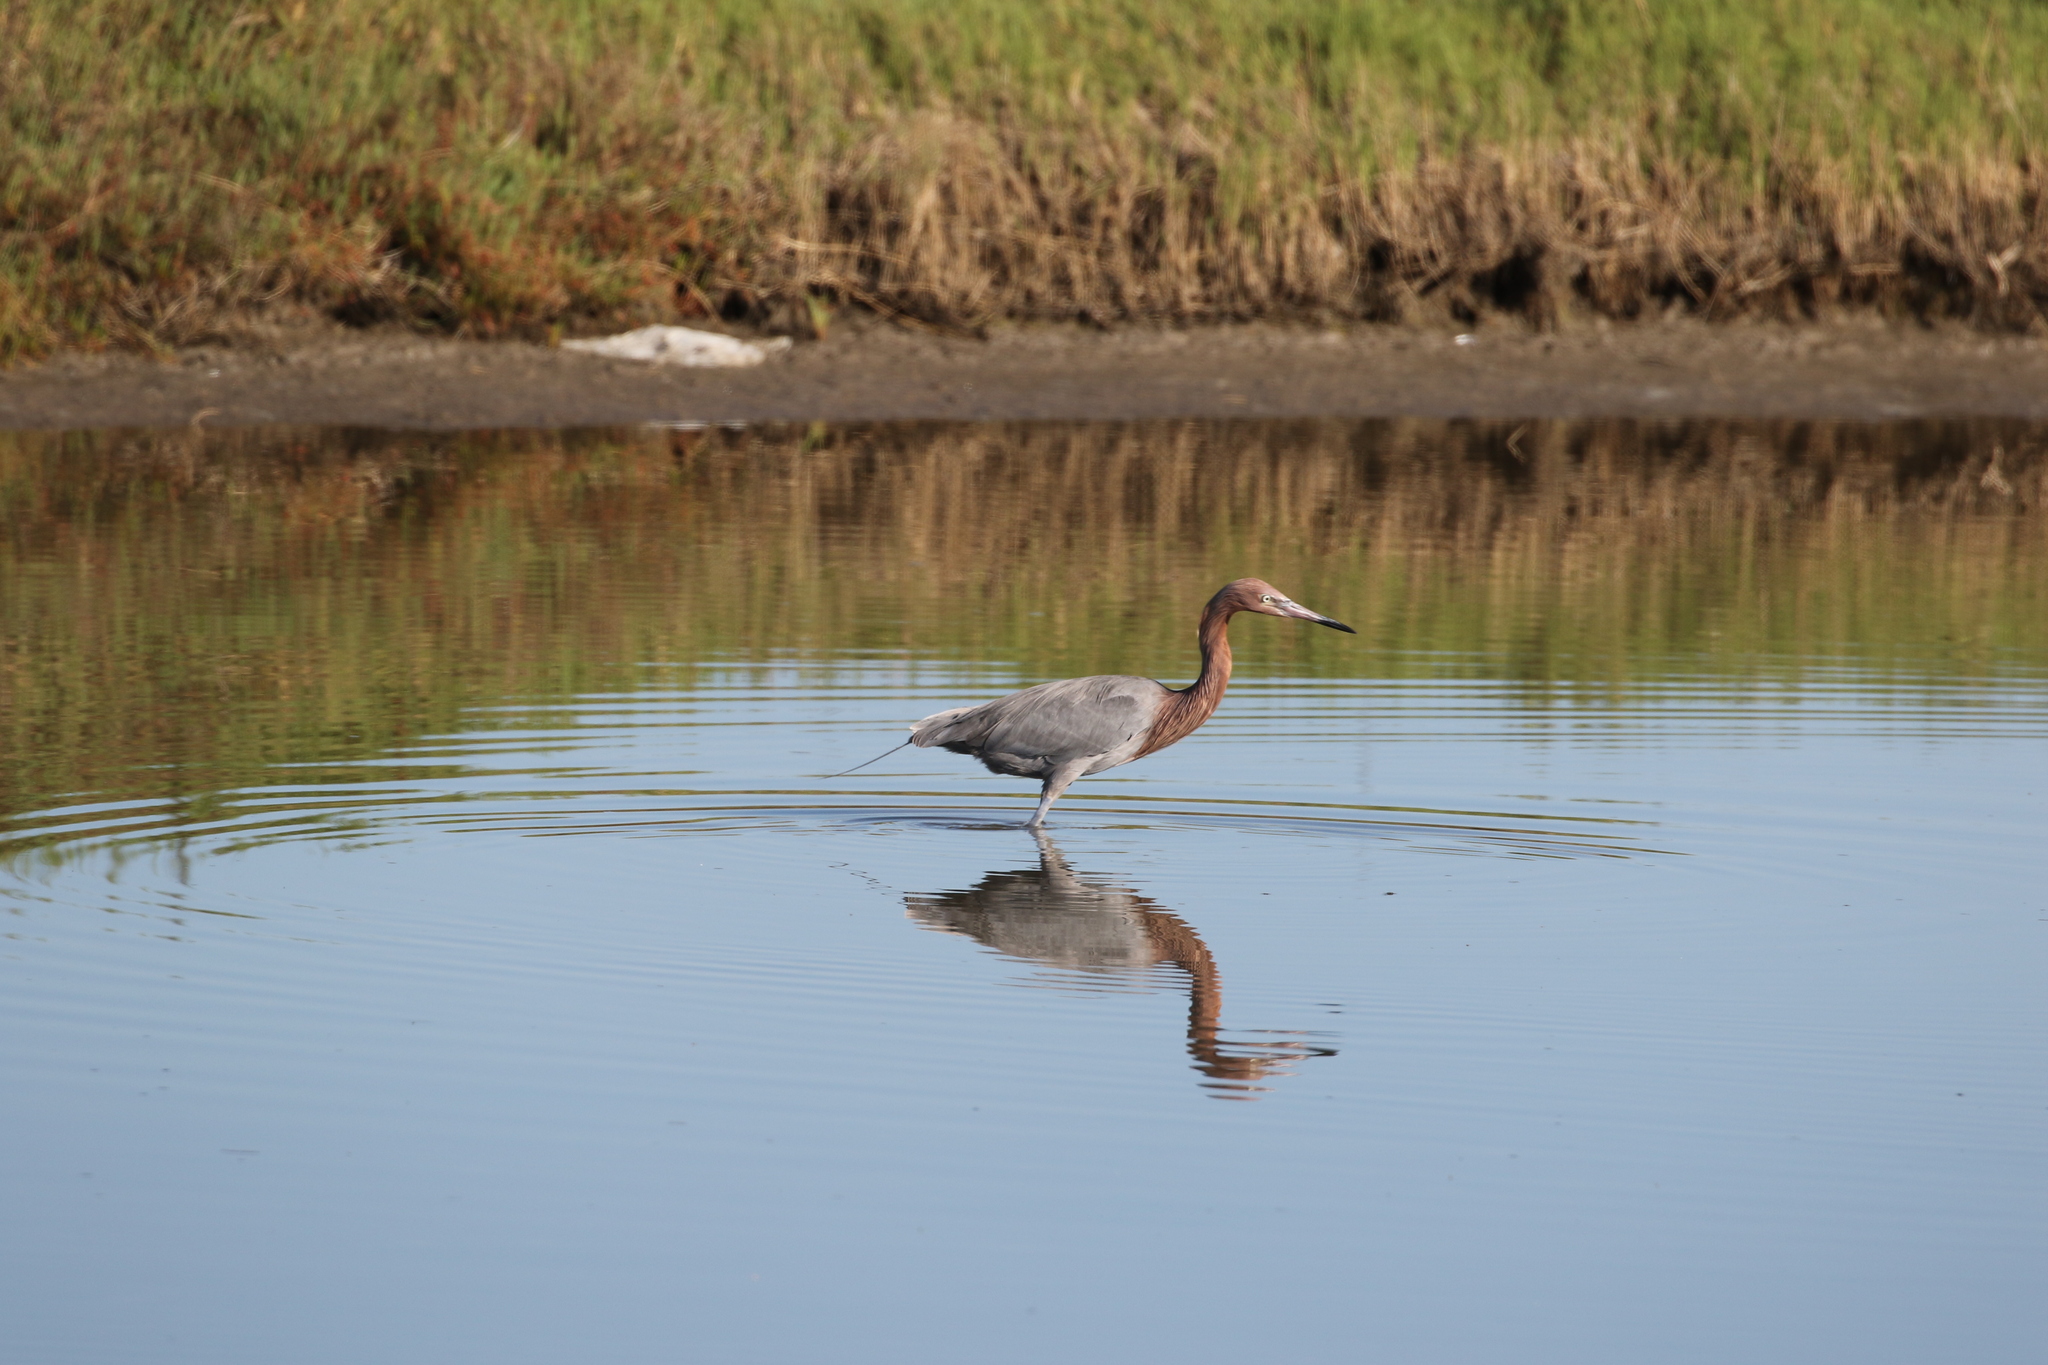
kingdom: Animalia
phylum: Chordata
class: Aves
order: Pelecaniformes
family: Ardeidae
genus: Egretta
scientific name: Egretta rufescens
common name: Reddish egret
